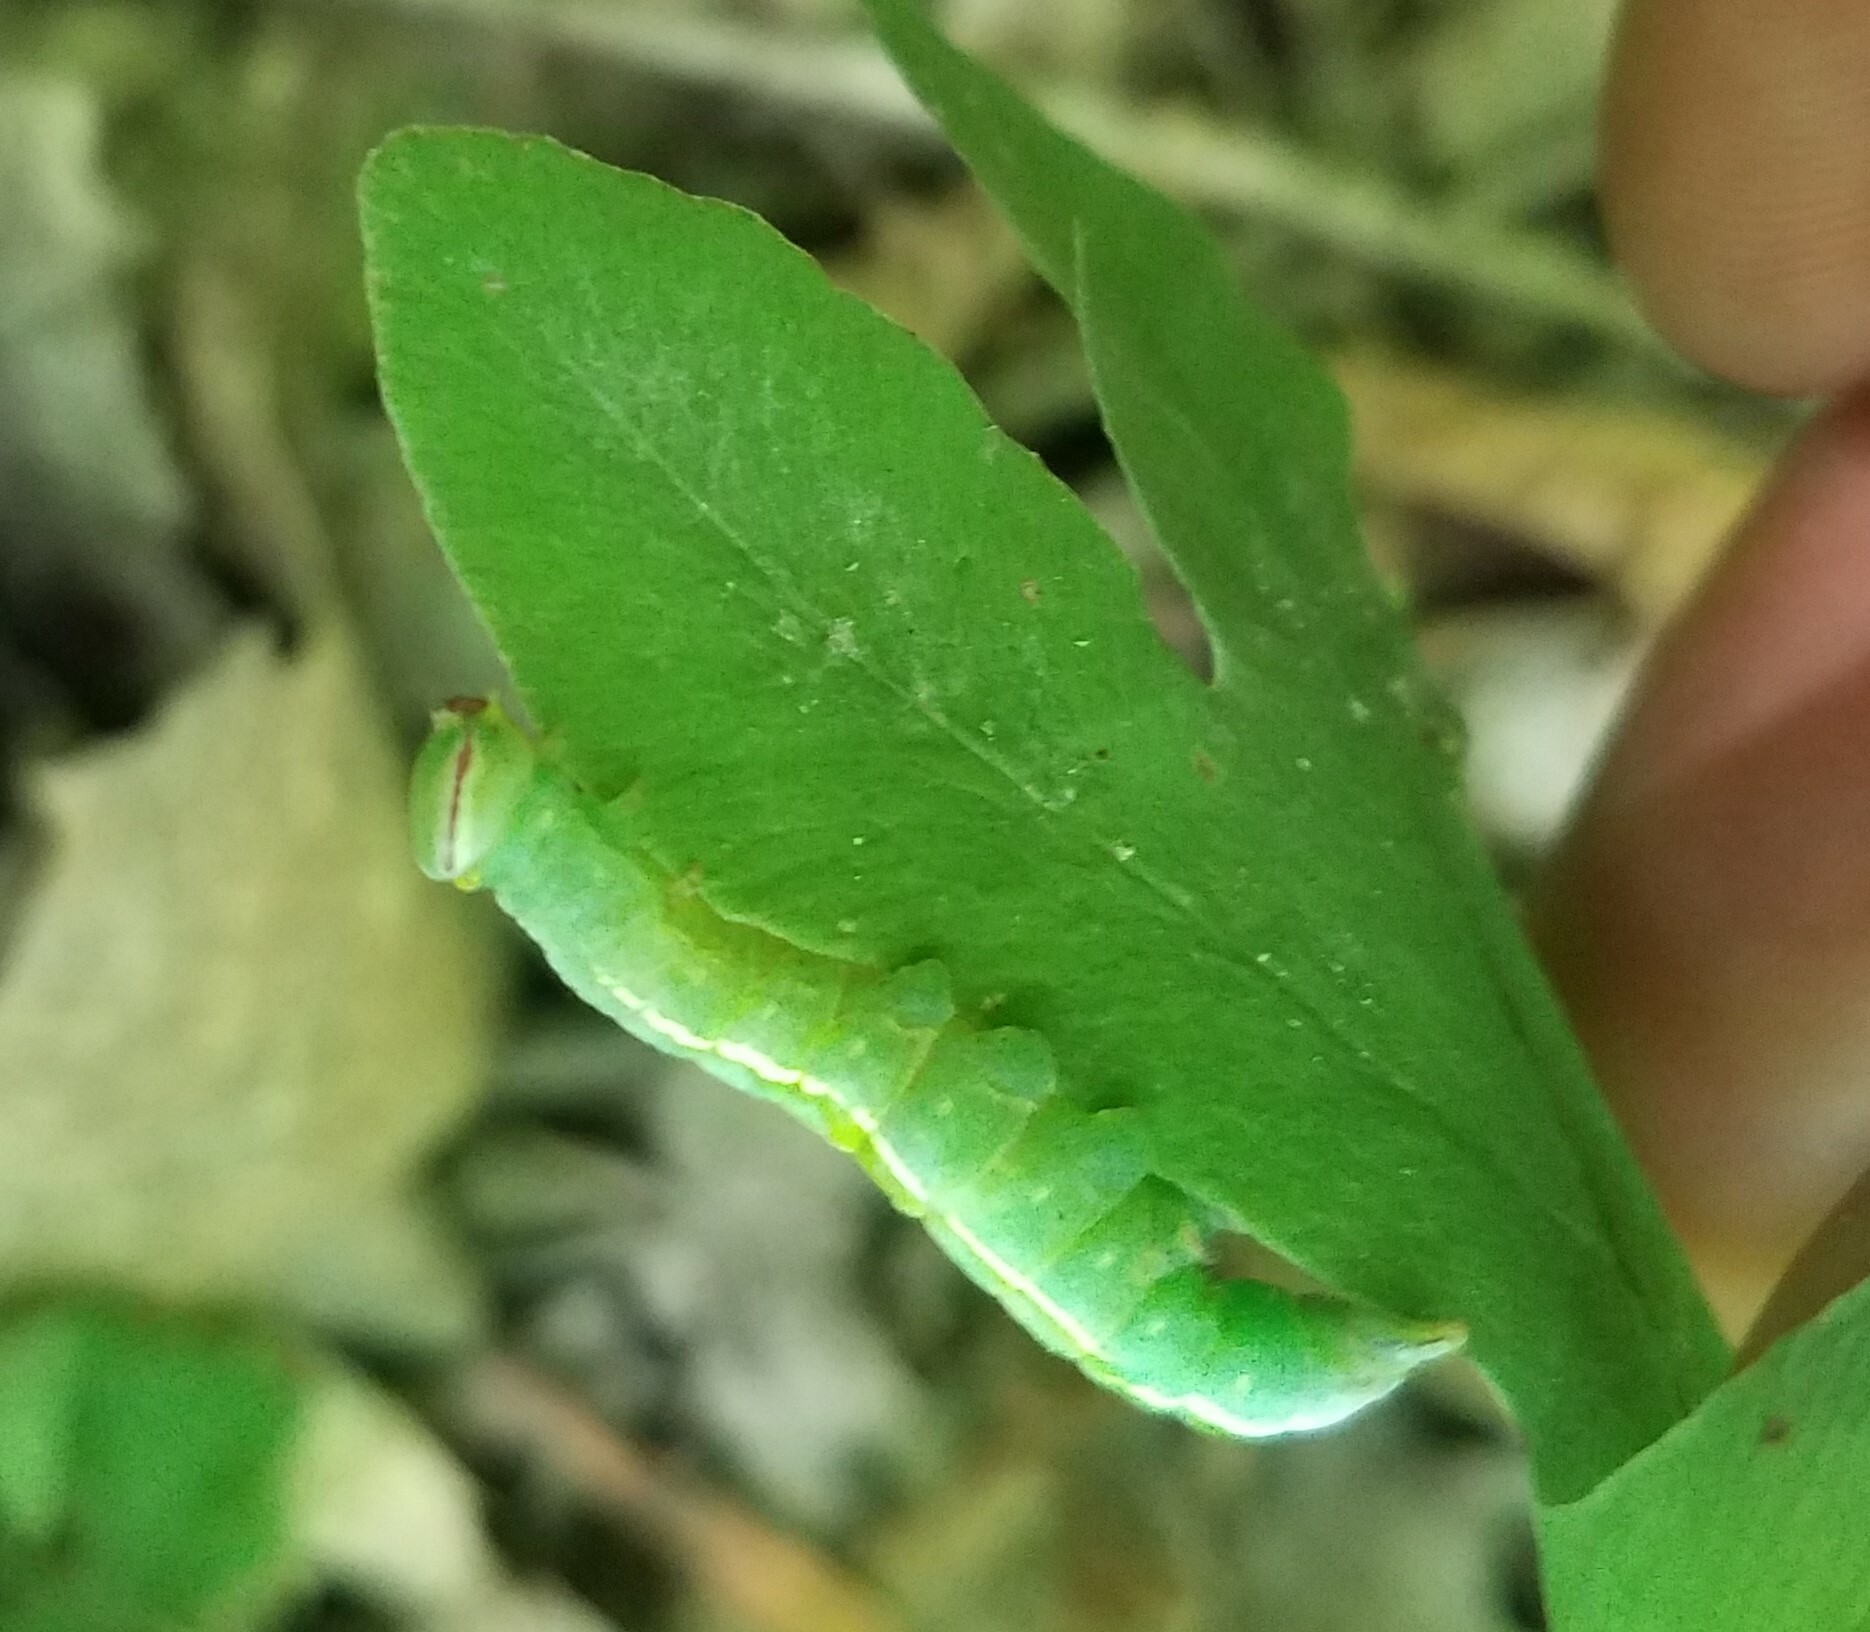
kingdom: Animalia
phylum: Arthropoda
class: Insecta
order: Lepidoptera
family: Notodontidae
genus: Disphragis
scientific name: Disphragis Cecrita guttivitta
